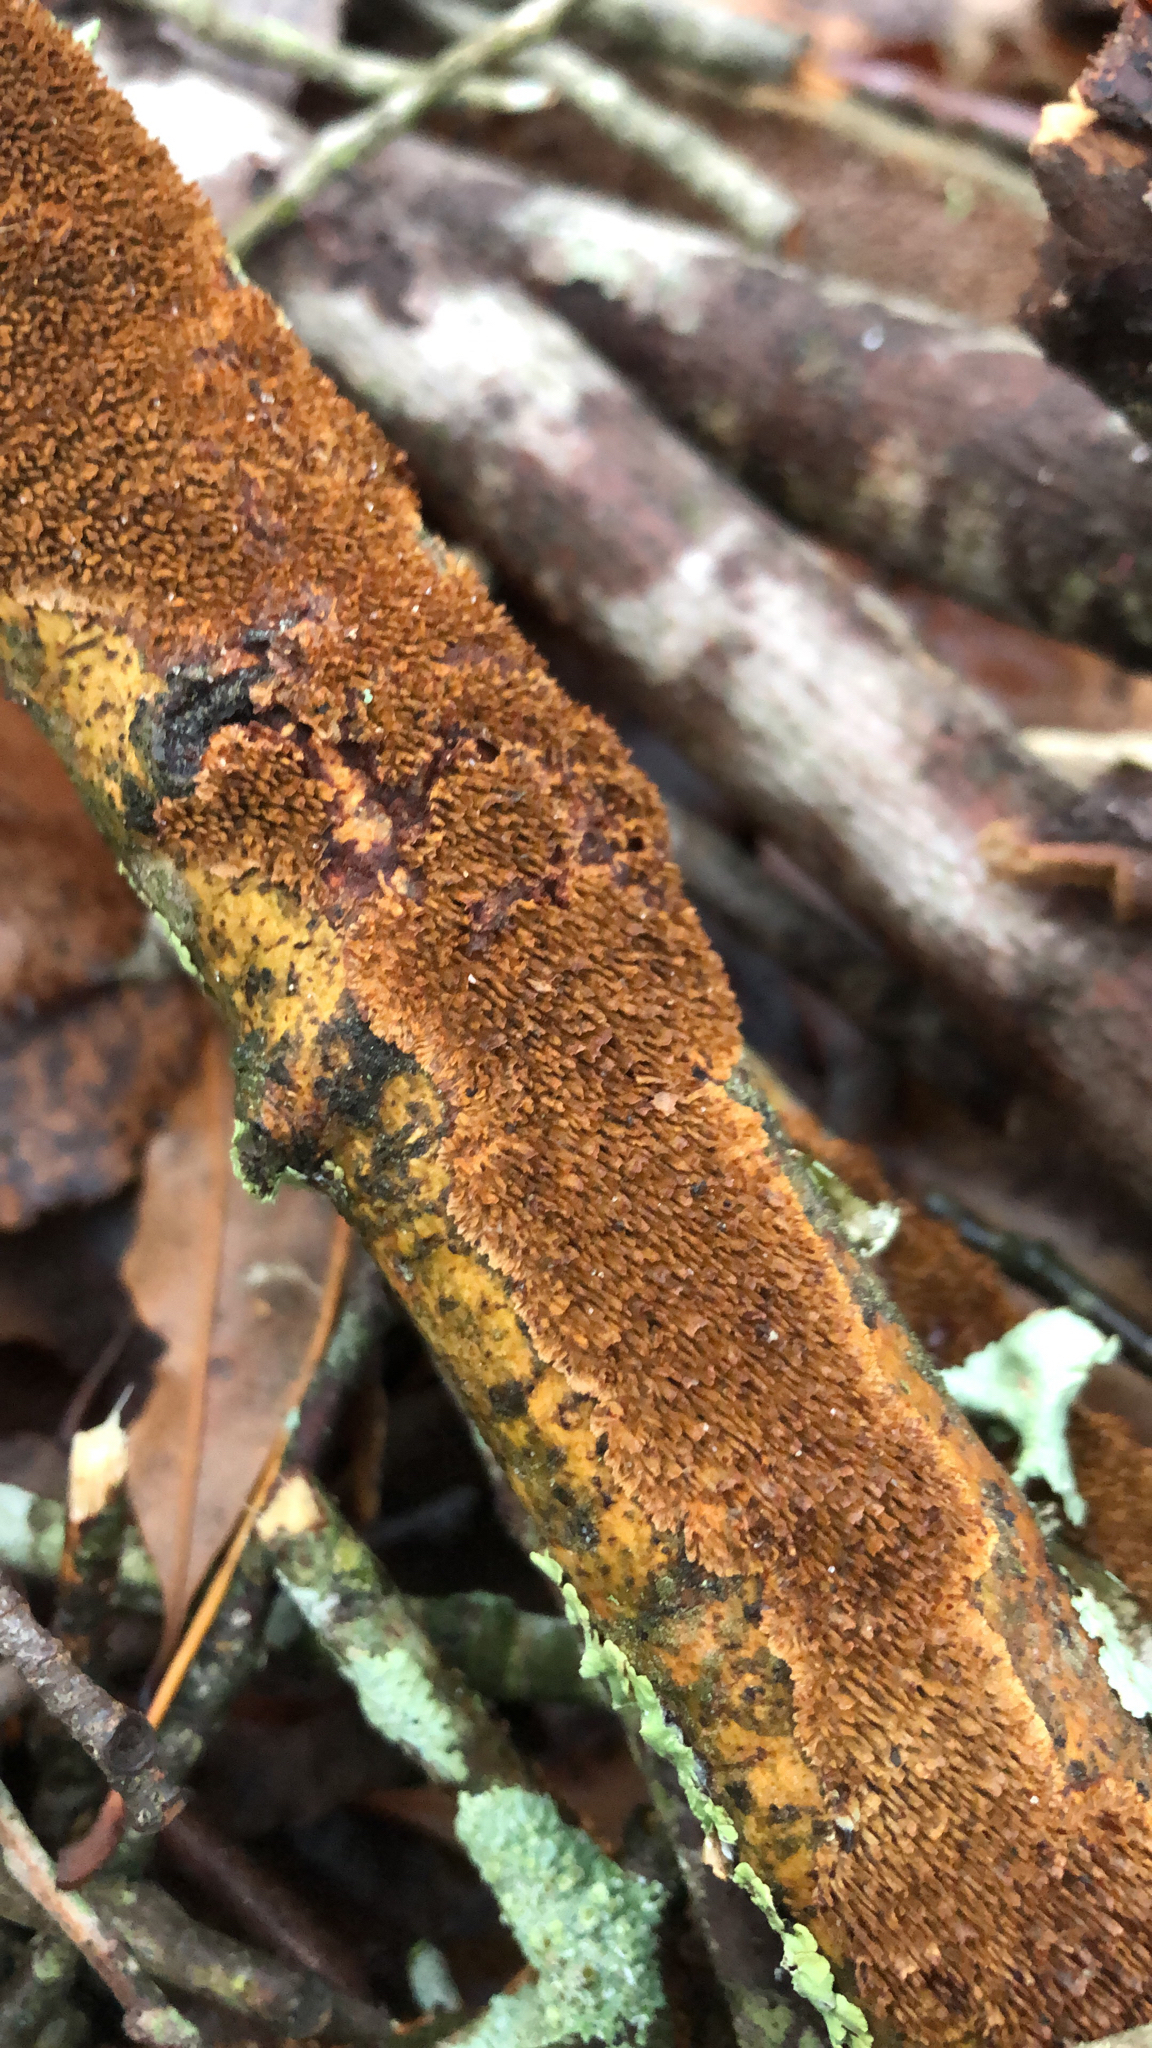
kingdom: Fungi
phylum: Basidiomycota
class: Agaricomycetes
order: Hymenochaetales
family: Hymenochaetaceae
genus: Hydnoporia
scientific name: Hydnoporia olivacea
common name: Brown-toothed crust fungus
